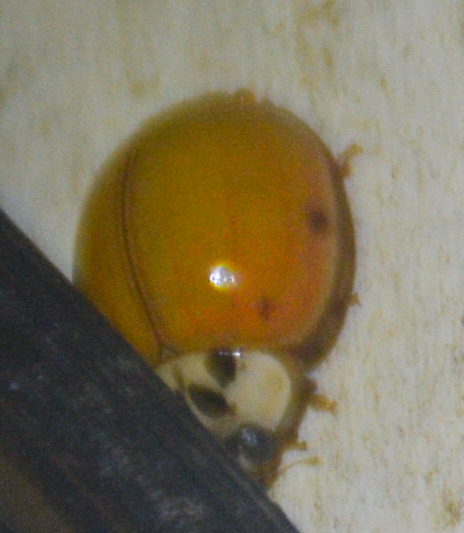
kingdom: Animalia
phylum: Arthropoda
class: Insecta
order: Coleoptera
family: Coccinellidae
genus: Harmonia
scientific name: Harmonia axyridis
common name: Harlequin ladybird
